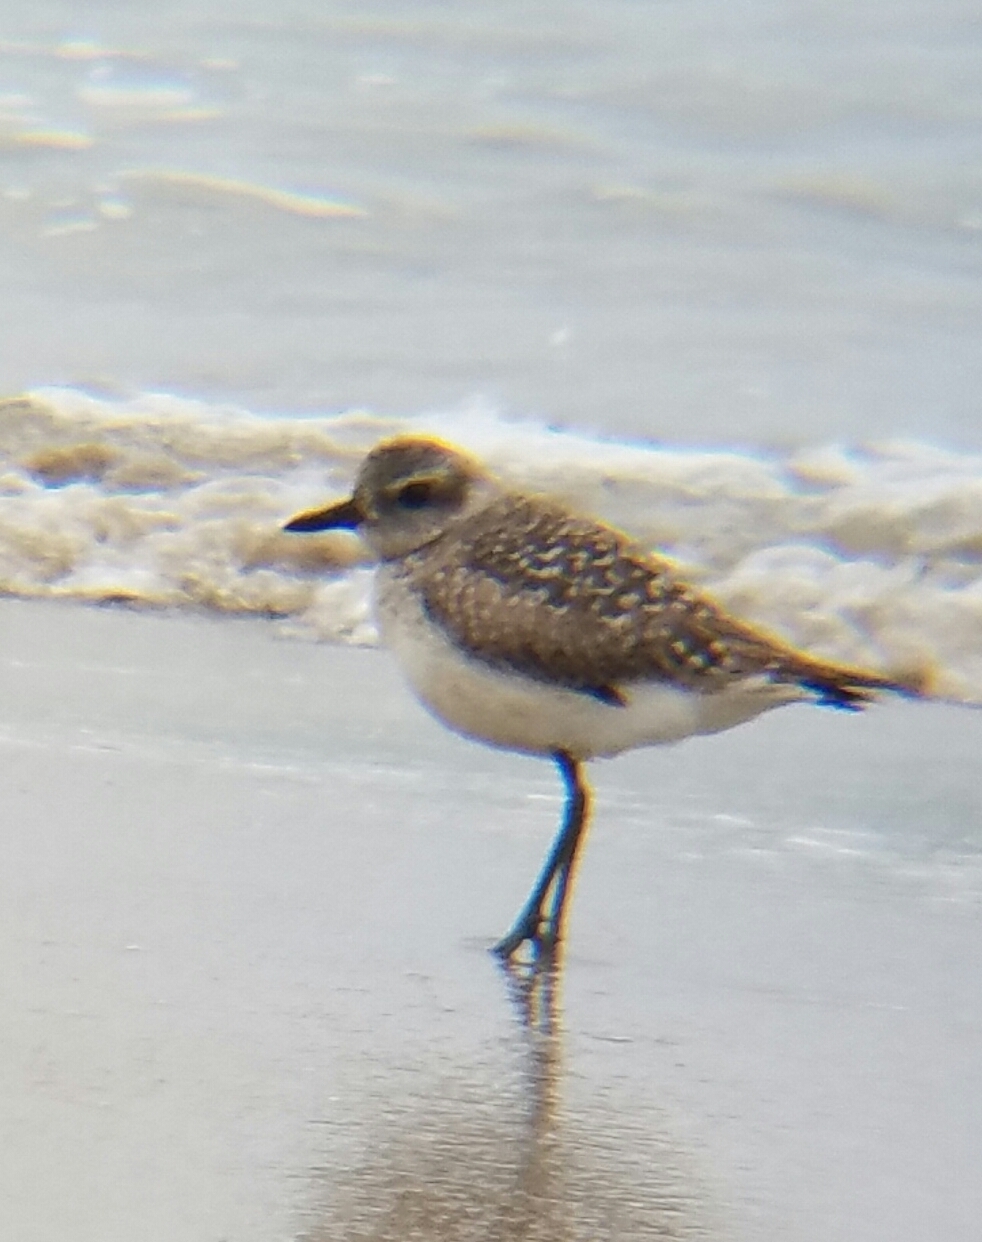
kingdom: Animalia
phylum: Chordata
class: Aves
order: Charadriiformes
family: Charadriidae
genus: Pluvialis
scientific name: Pluvialis squatarola
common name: Grey plover
